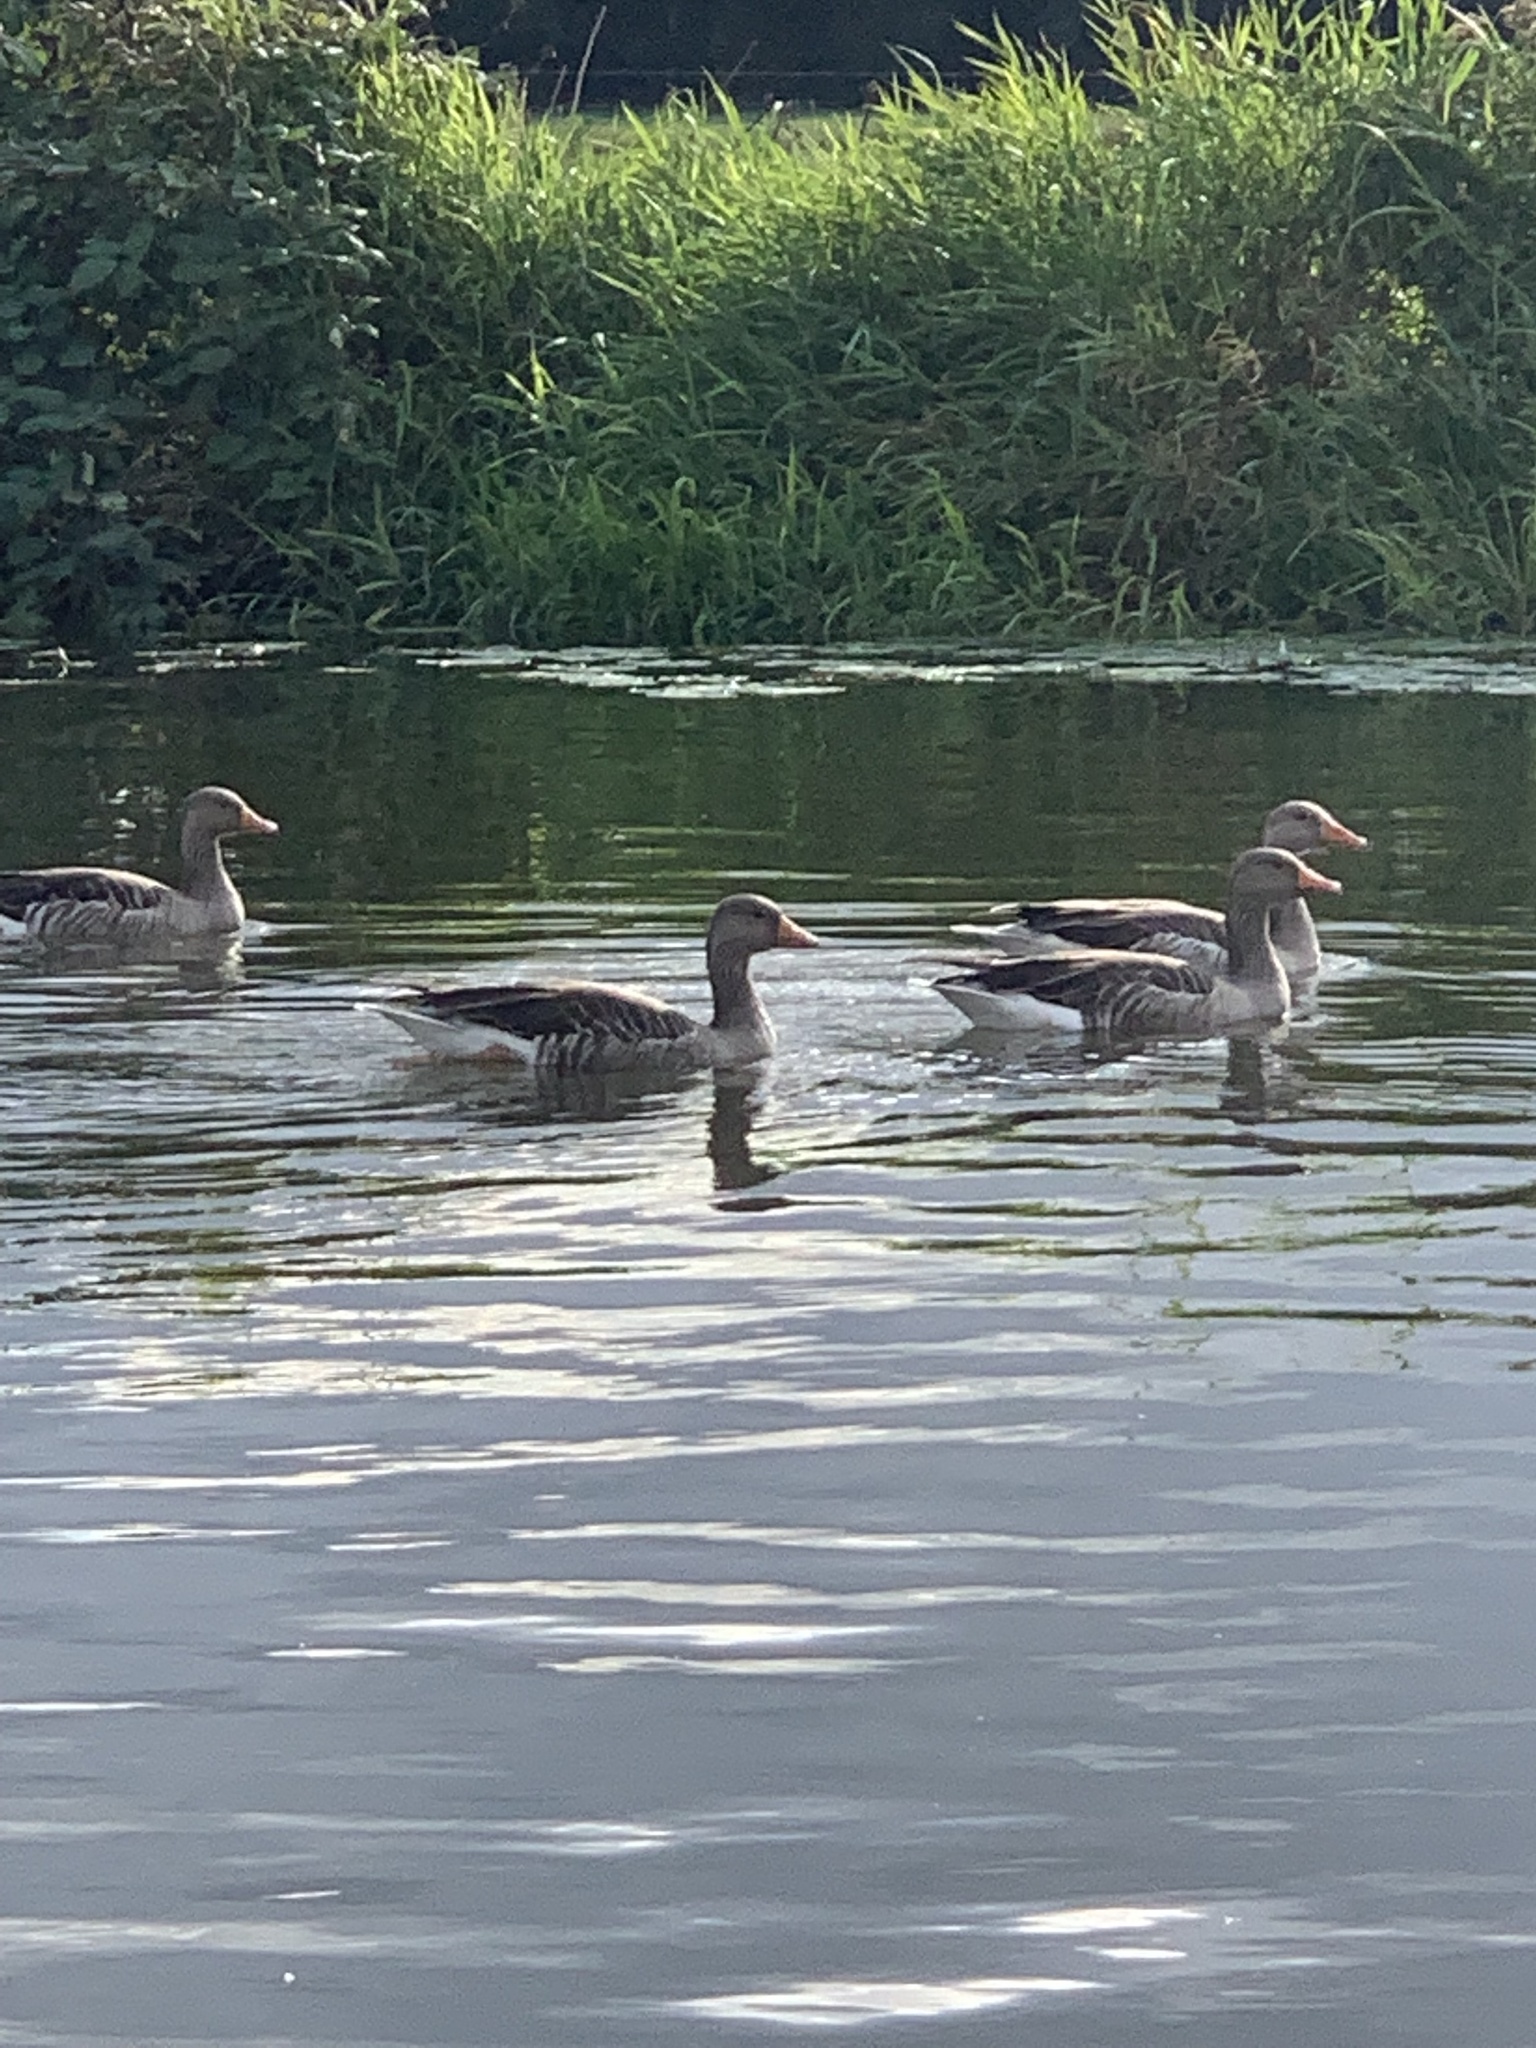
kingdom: Animalia
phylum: Chordata
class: Aves
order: Anseriformes
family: Anatidae
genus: Anser
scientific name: Anser anser
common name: Greylag goose
